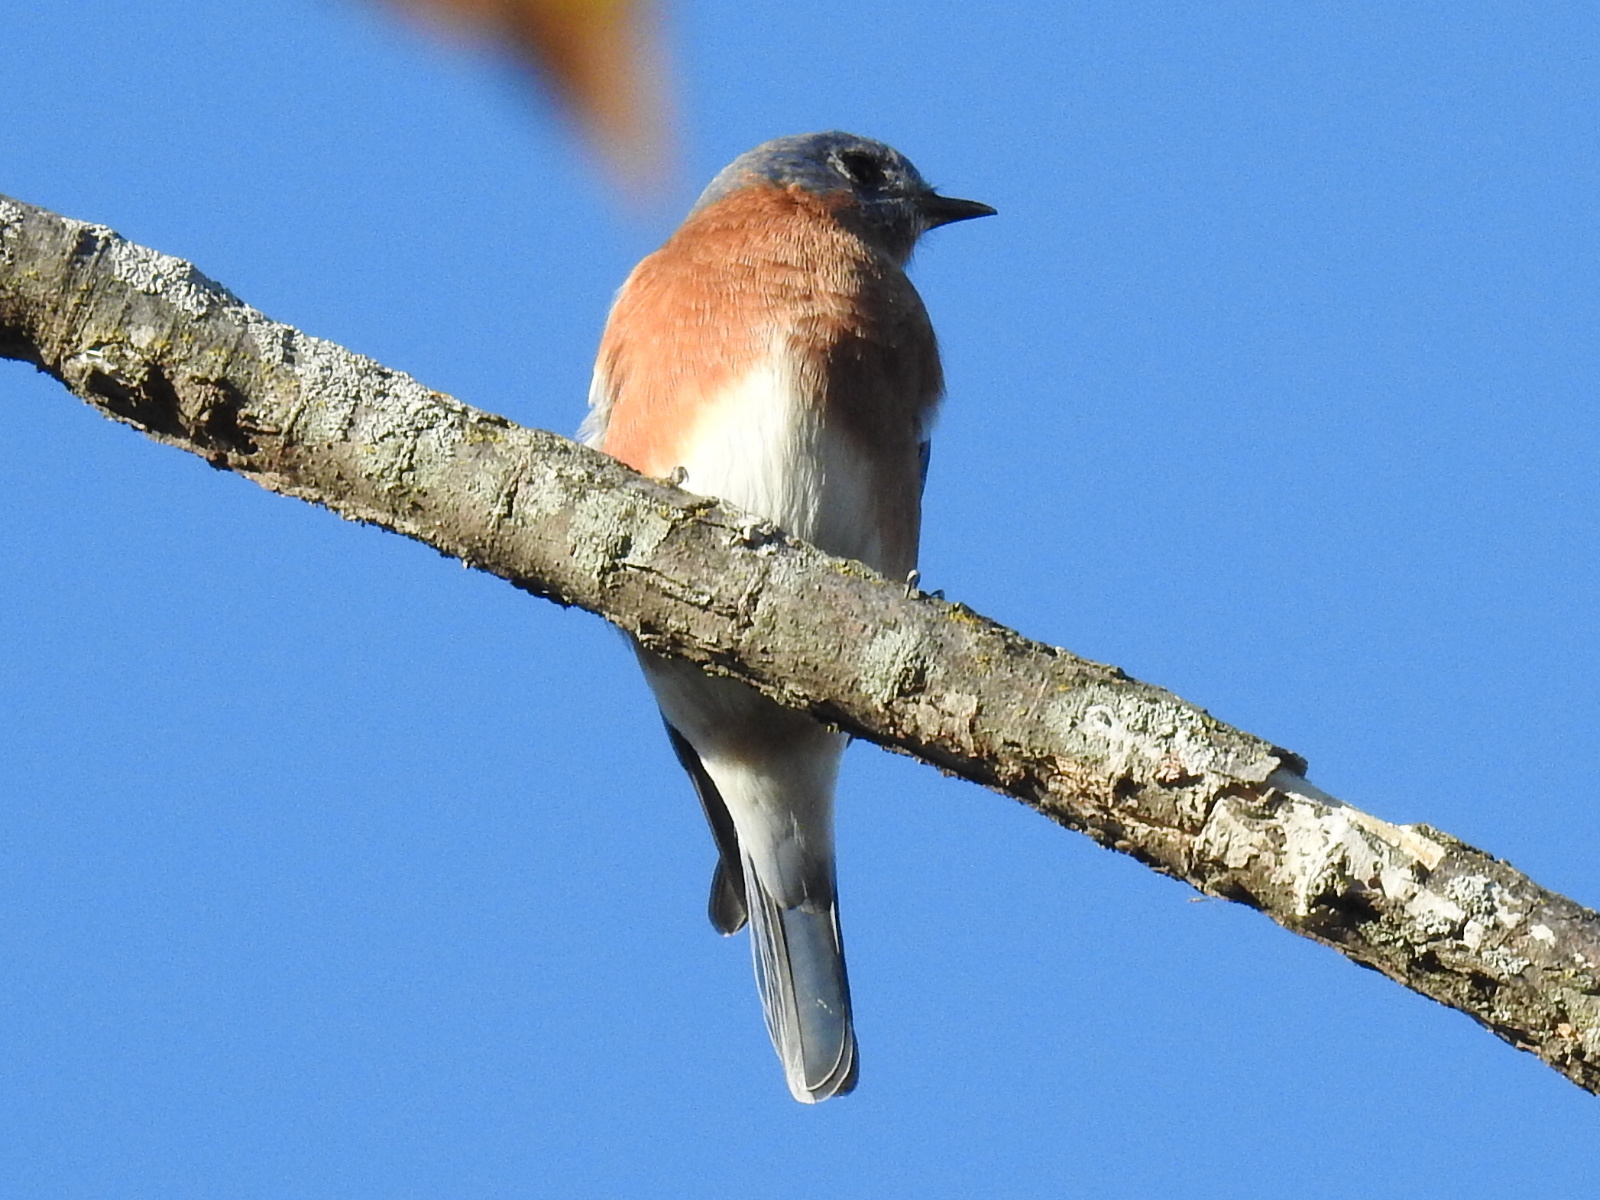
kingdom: Animalia
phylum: Chordata
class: Aves
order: Passeriformes
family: Turdidae
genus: Sialia
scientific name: Sialia sialis
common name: Eastern bluebird
